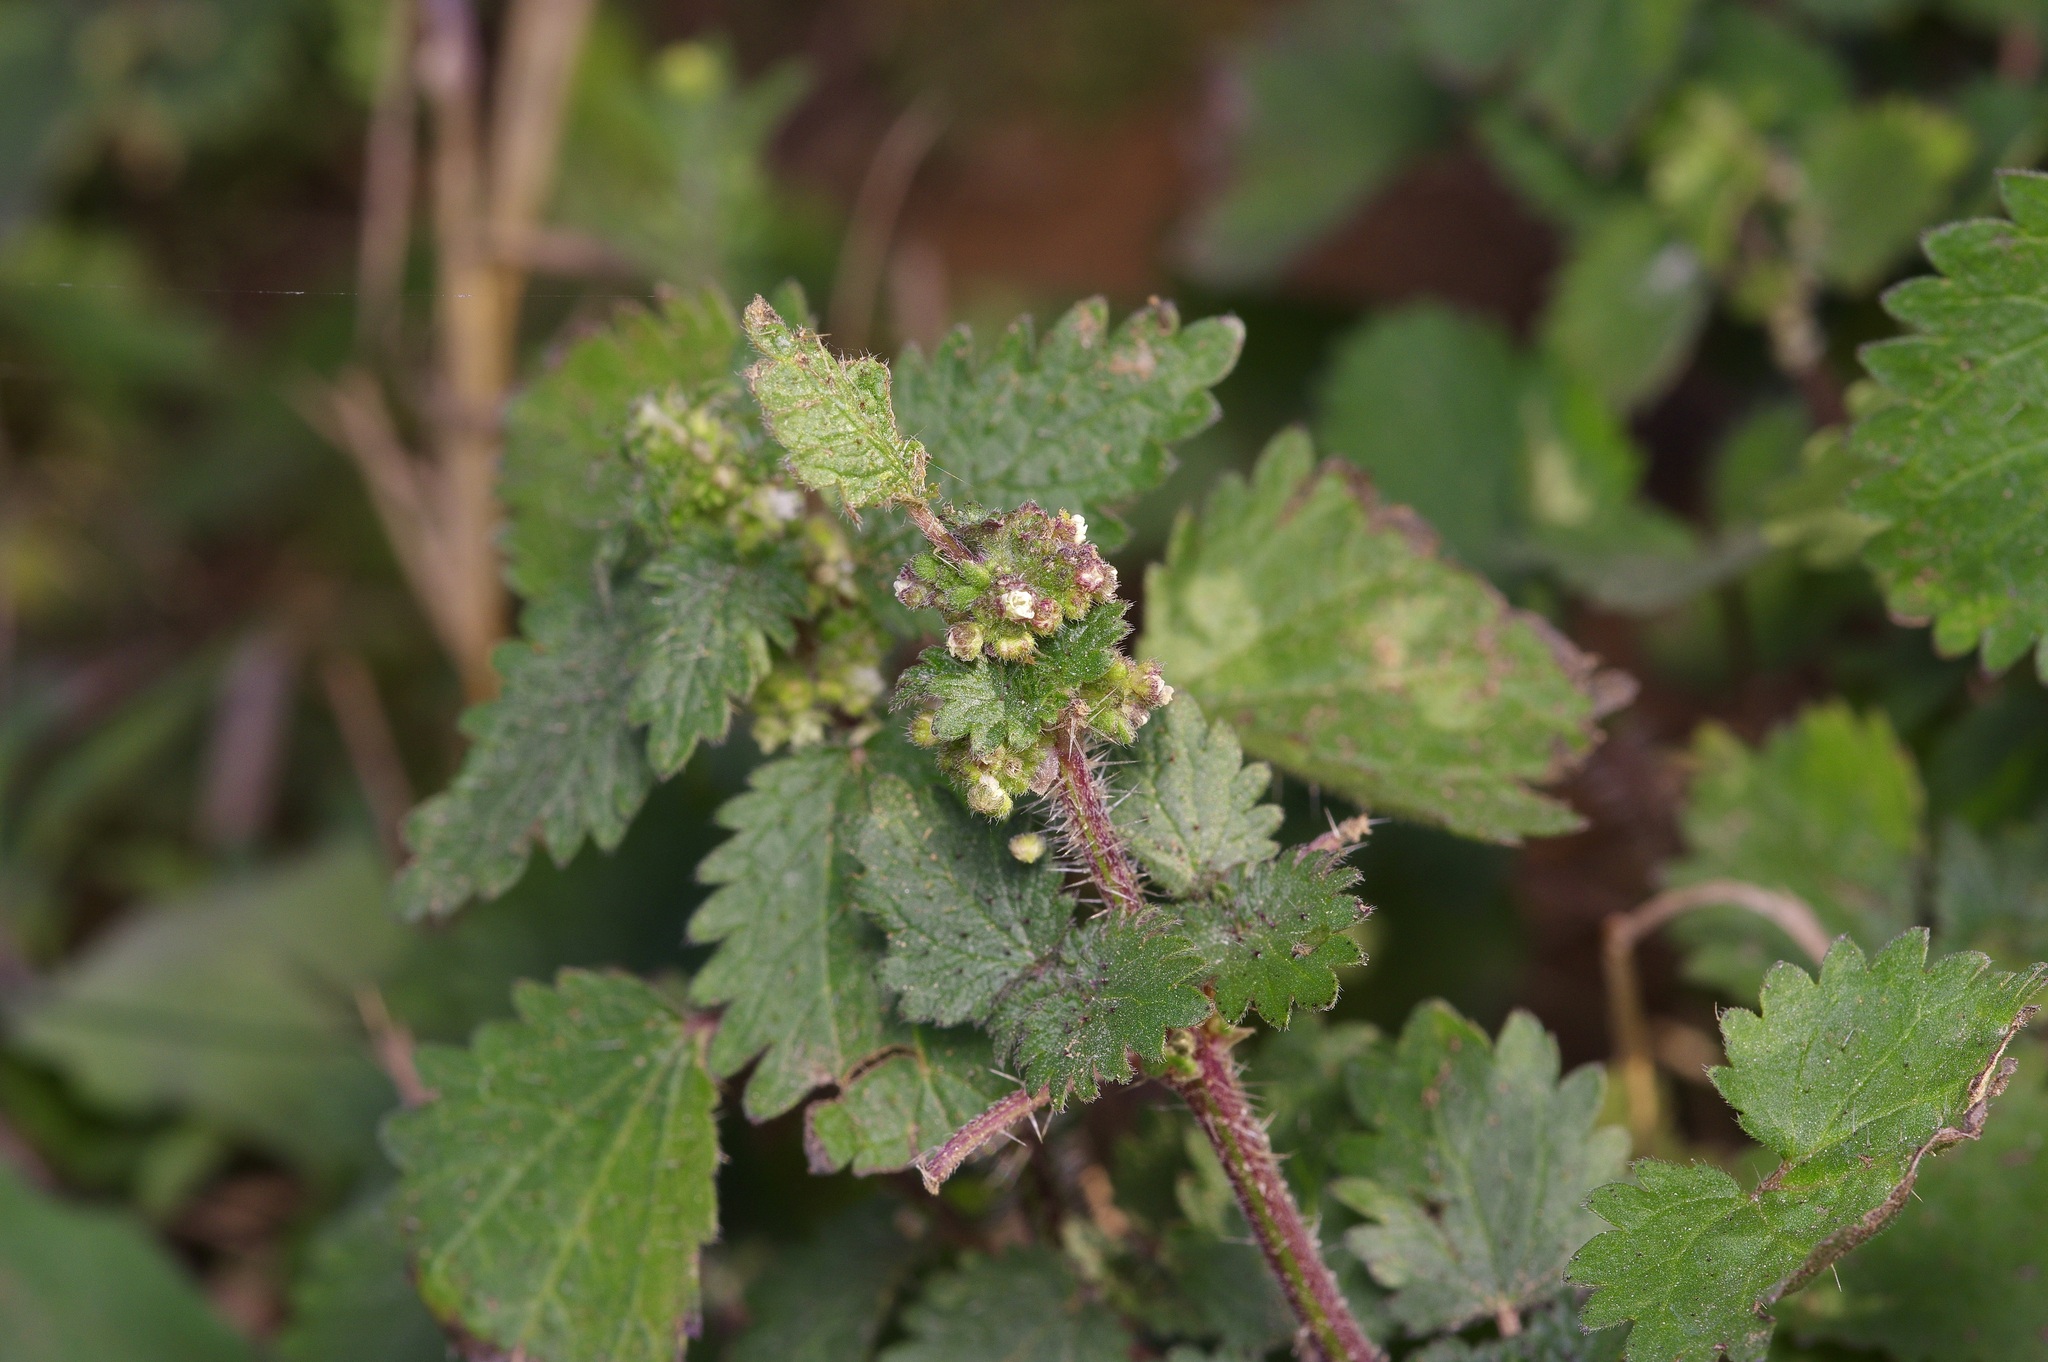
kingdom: Plantae
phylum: Tracheophyta
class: Magnoliopsida
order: Rosales
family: Urticaceae
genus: Urtica
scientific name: Urtica chamaedryoides
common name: Heart-leaf nettle
